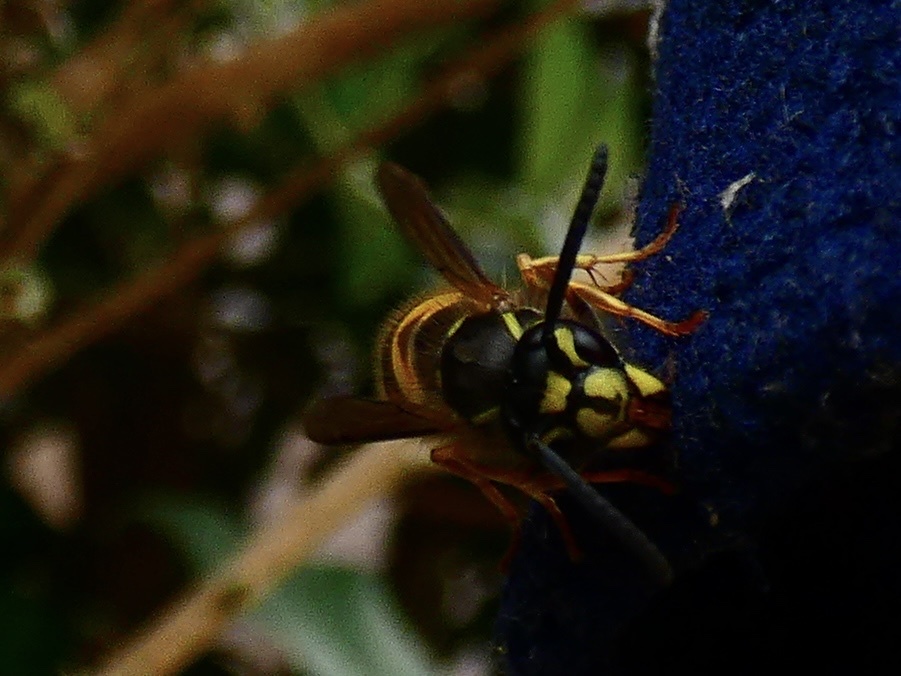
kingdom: Animalia
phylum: Arthropoda
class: Insecta
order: Hymenoptera
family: Vespidae
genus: Vespula
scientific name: Vespula vulgaris
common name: Common wasp
